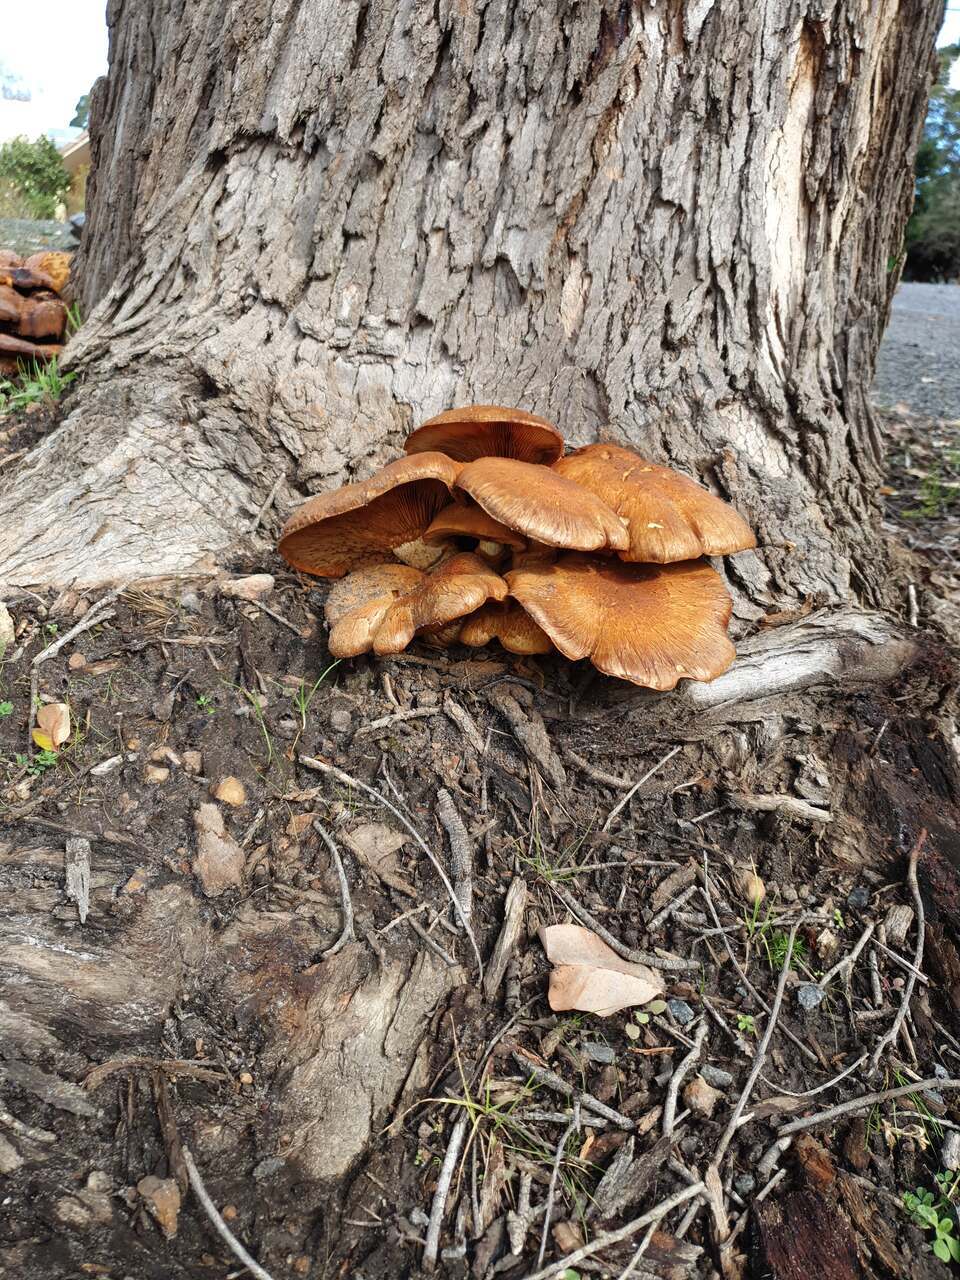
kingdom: Fungi
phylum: Basidiomycota
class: Agaricomycetes
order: Agaricales
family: Hymenogastraceae
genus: Gymnopilus
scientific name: Gymnopilus junonius
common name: Spectacular rustgill
